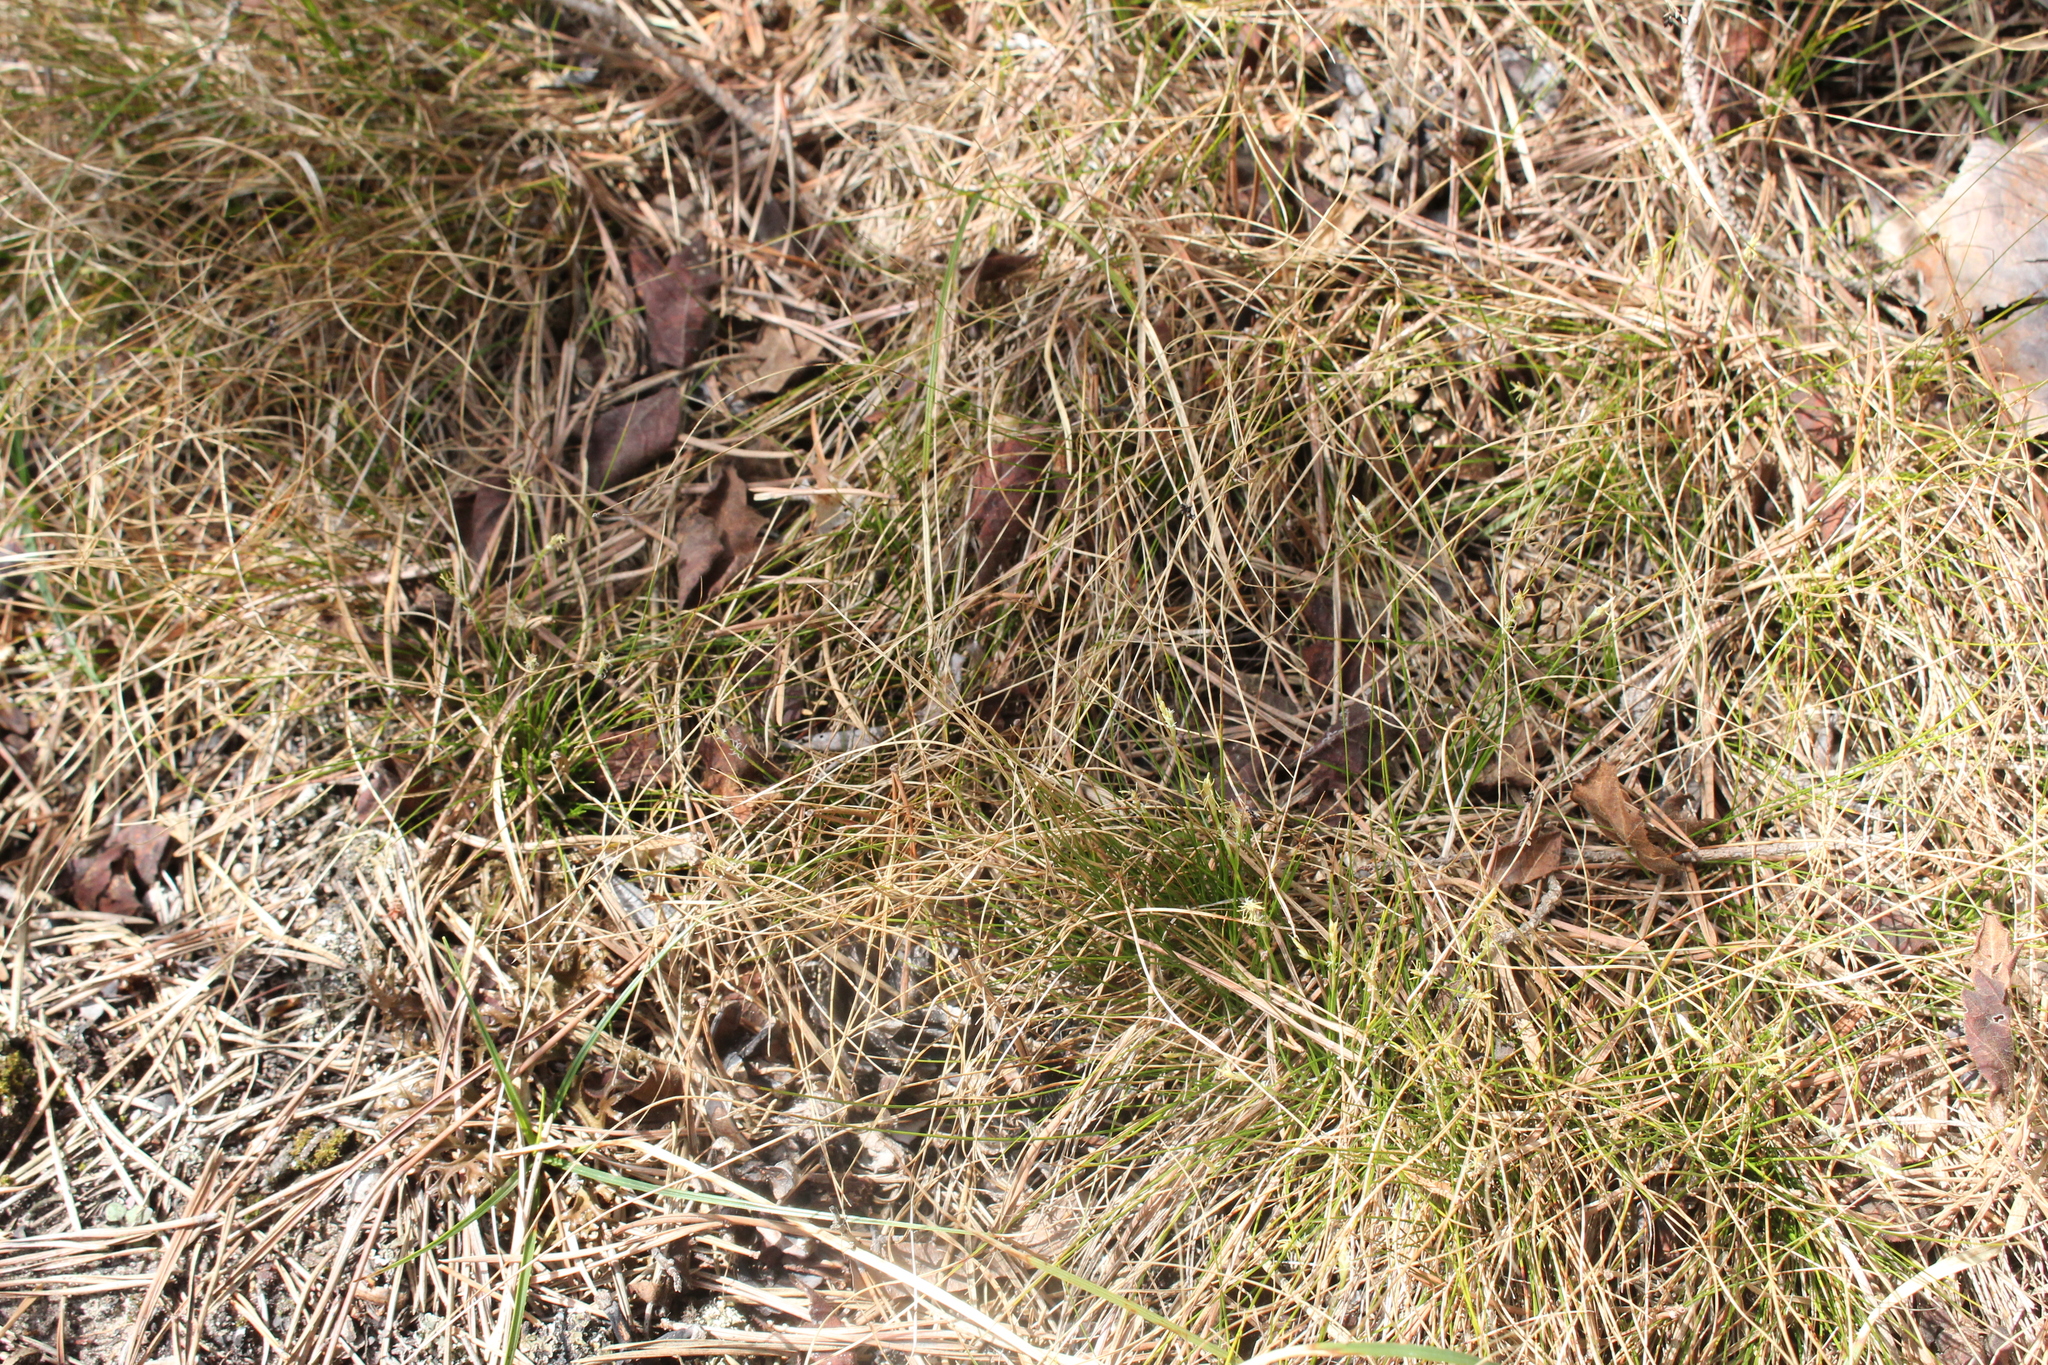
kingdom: Plantae
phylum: Tracheophyta
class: Liliopsida
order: Poales
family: Cyperaceae
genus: Carex
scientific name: Carex eburnea
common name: Bristle-leaved sedge
